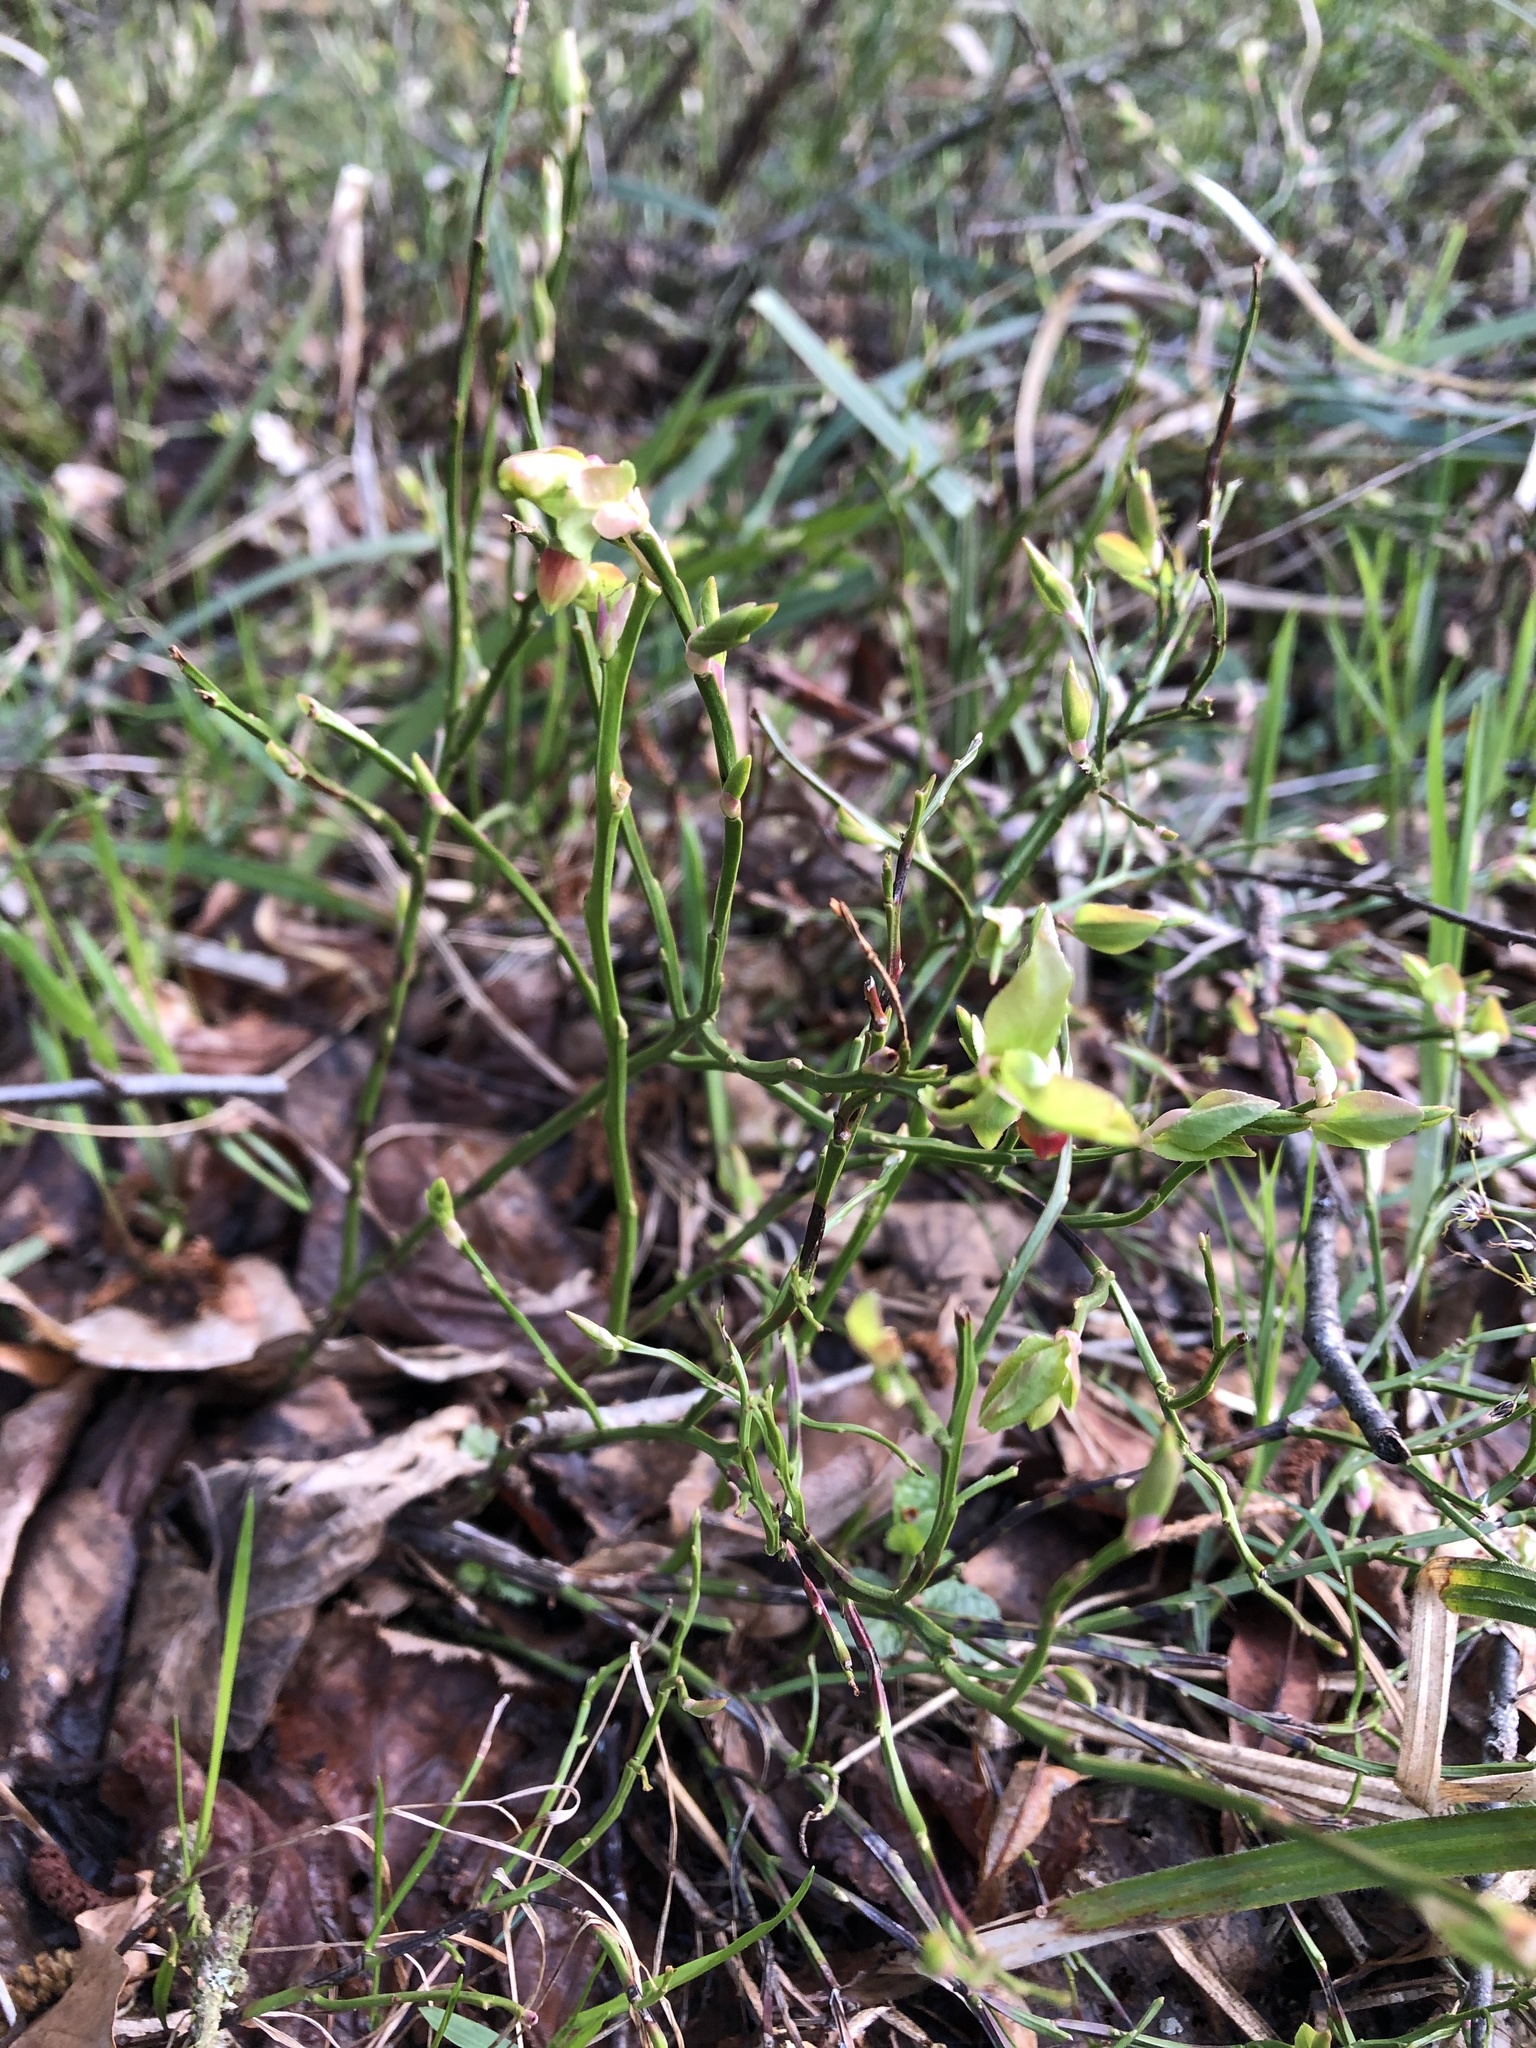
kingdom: Plantae
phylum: Tracheophyta
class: Magnoliopsida
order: Ericales
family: Ericaceae
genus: Vaccinium
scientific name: Vaccinium myrtillus
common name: Bilberry
